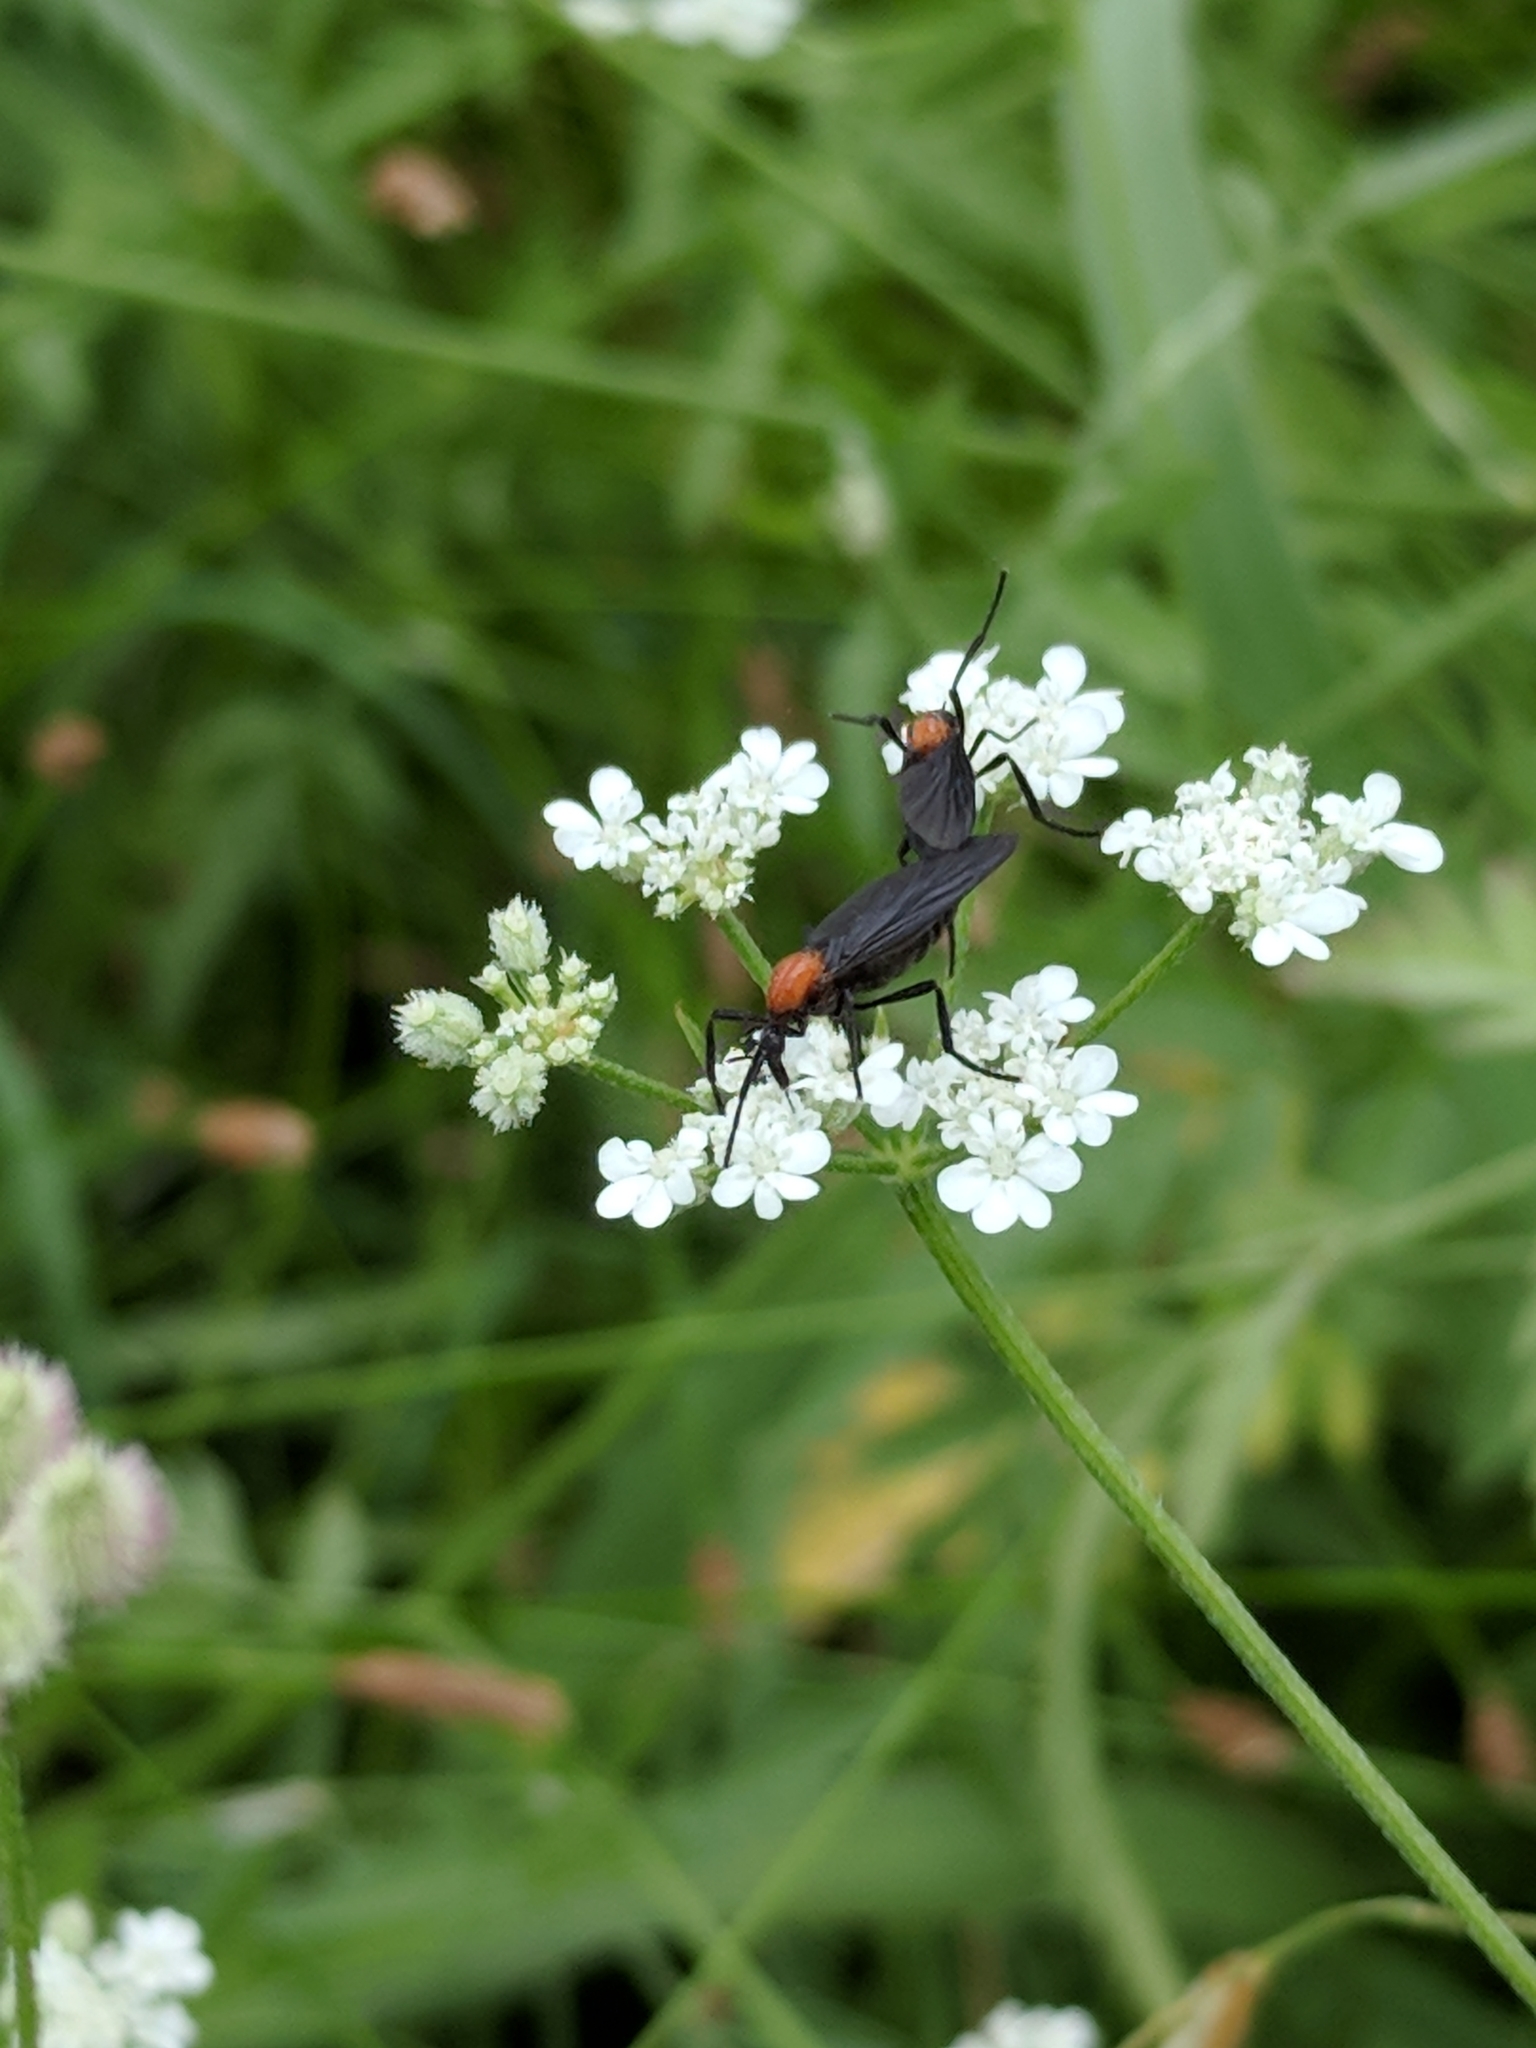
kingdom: Animalia
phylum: Arthropoda
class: Insecta
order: Diptera
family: Bibionidae
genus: Plecia
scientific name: Plecia nearctica
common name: March fly
